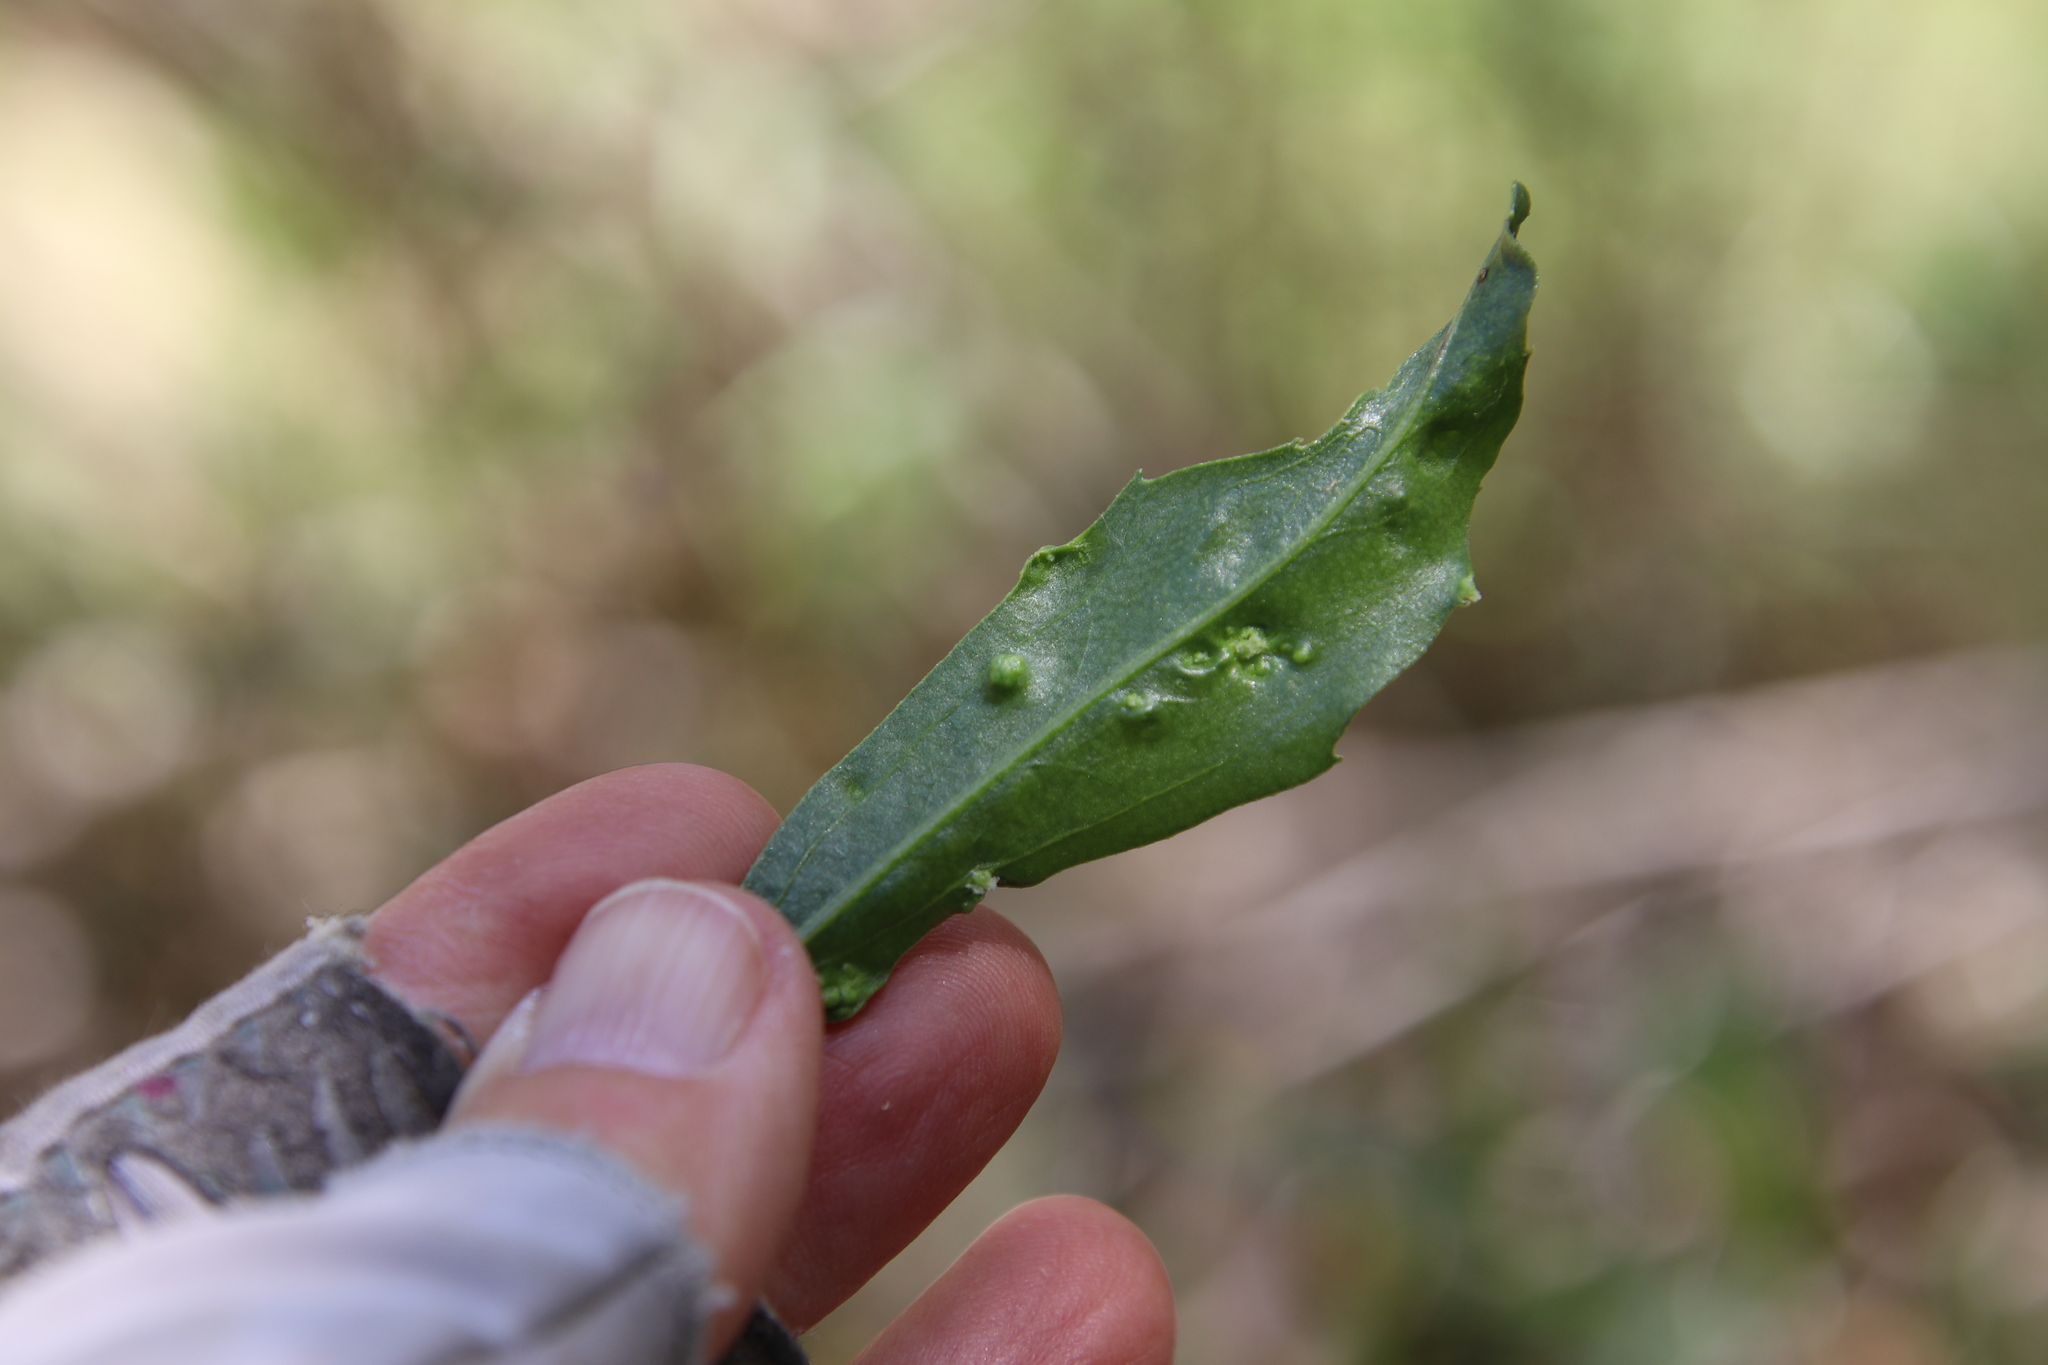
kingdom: Animalia
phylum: Arthropoda
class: Arachnida
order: Trombidiformes
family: Eriophyidae
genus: Aceria
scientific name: Aceria
